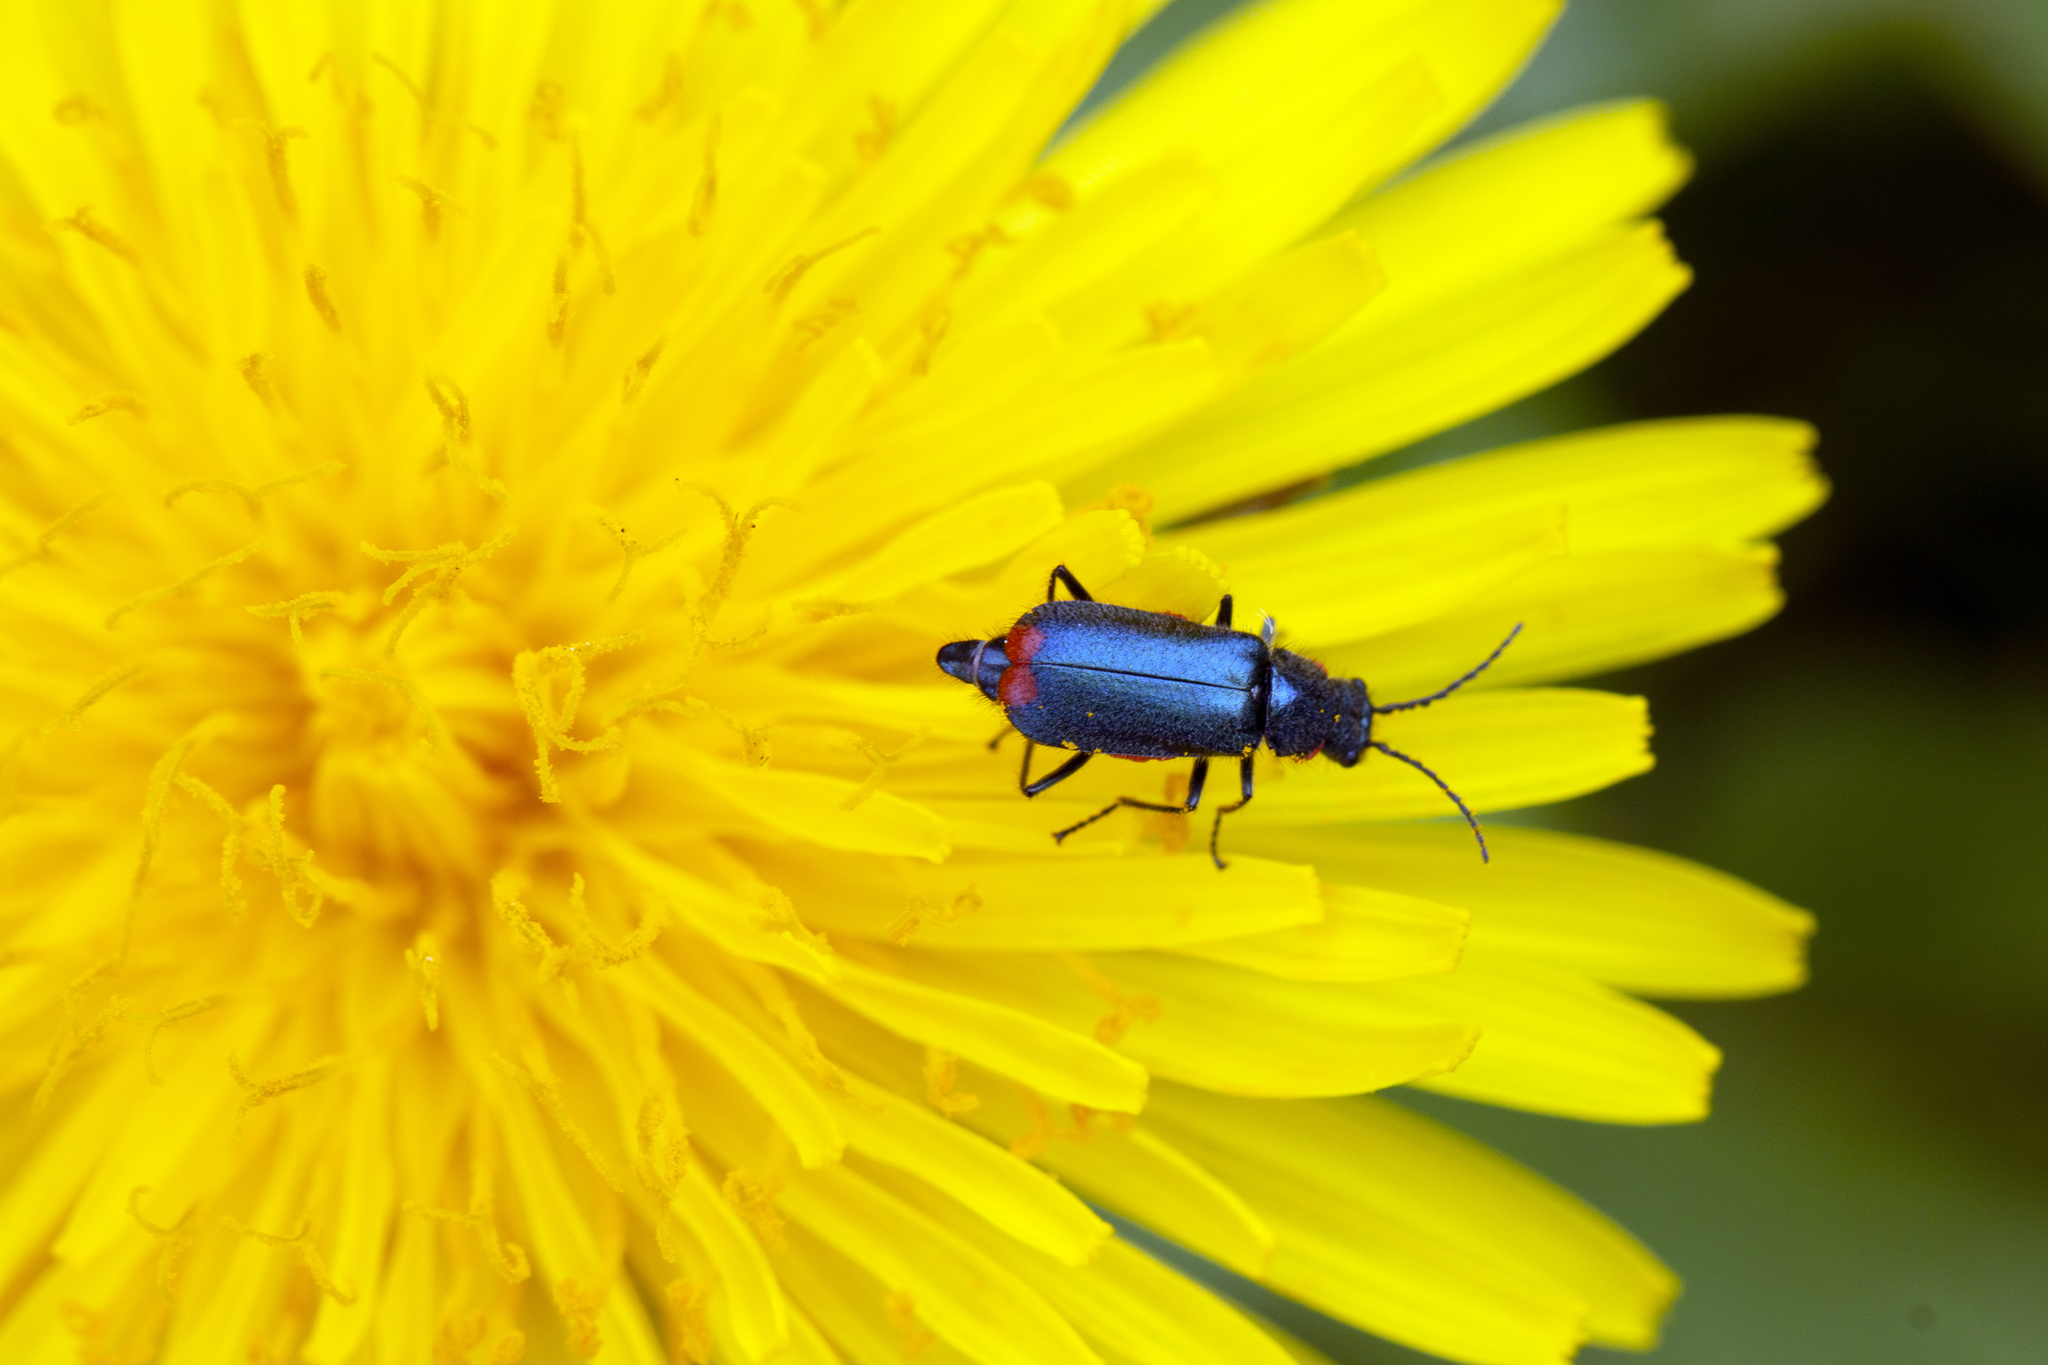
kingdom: Animalia
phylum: Arthropoda
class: Insecta
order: Coleoptera
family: Melyridae
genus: Malachius
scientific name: Malachius bipustulatus
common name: Malachite beetle
